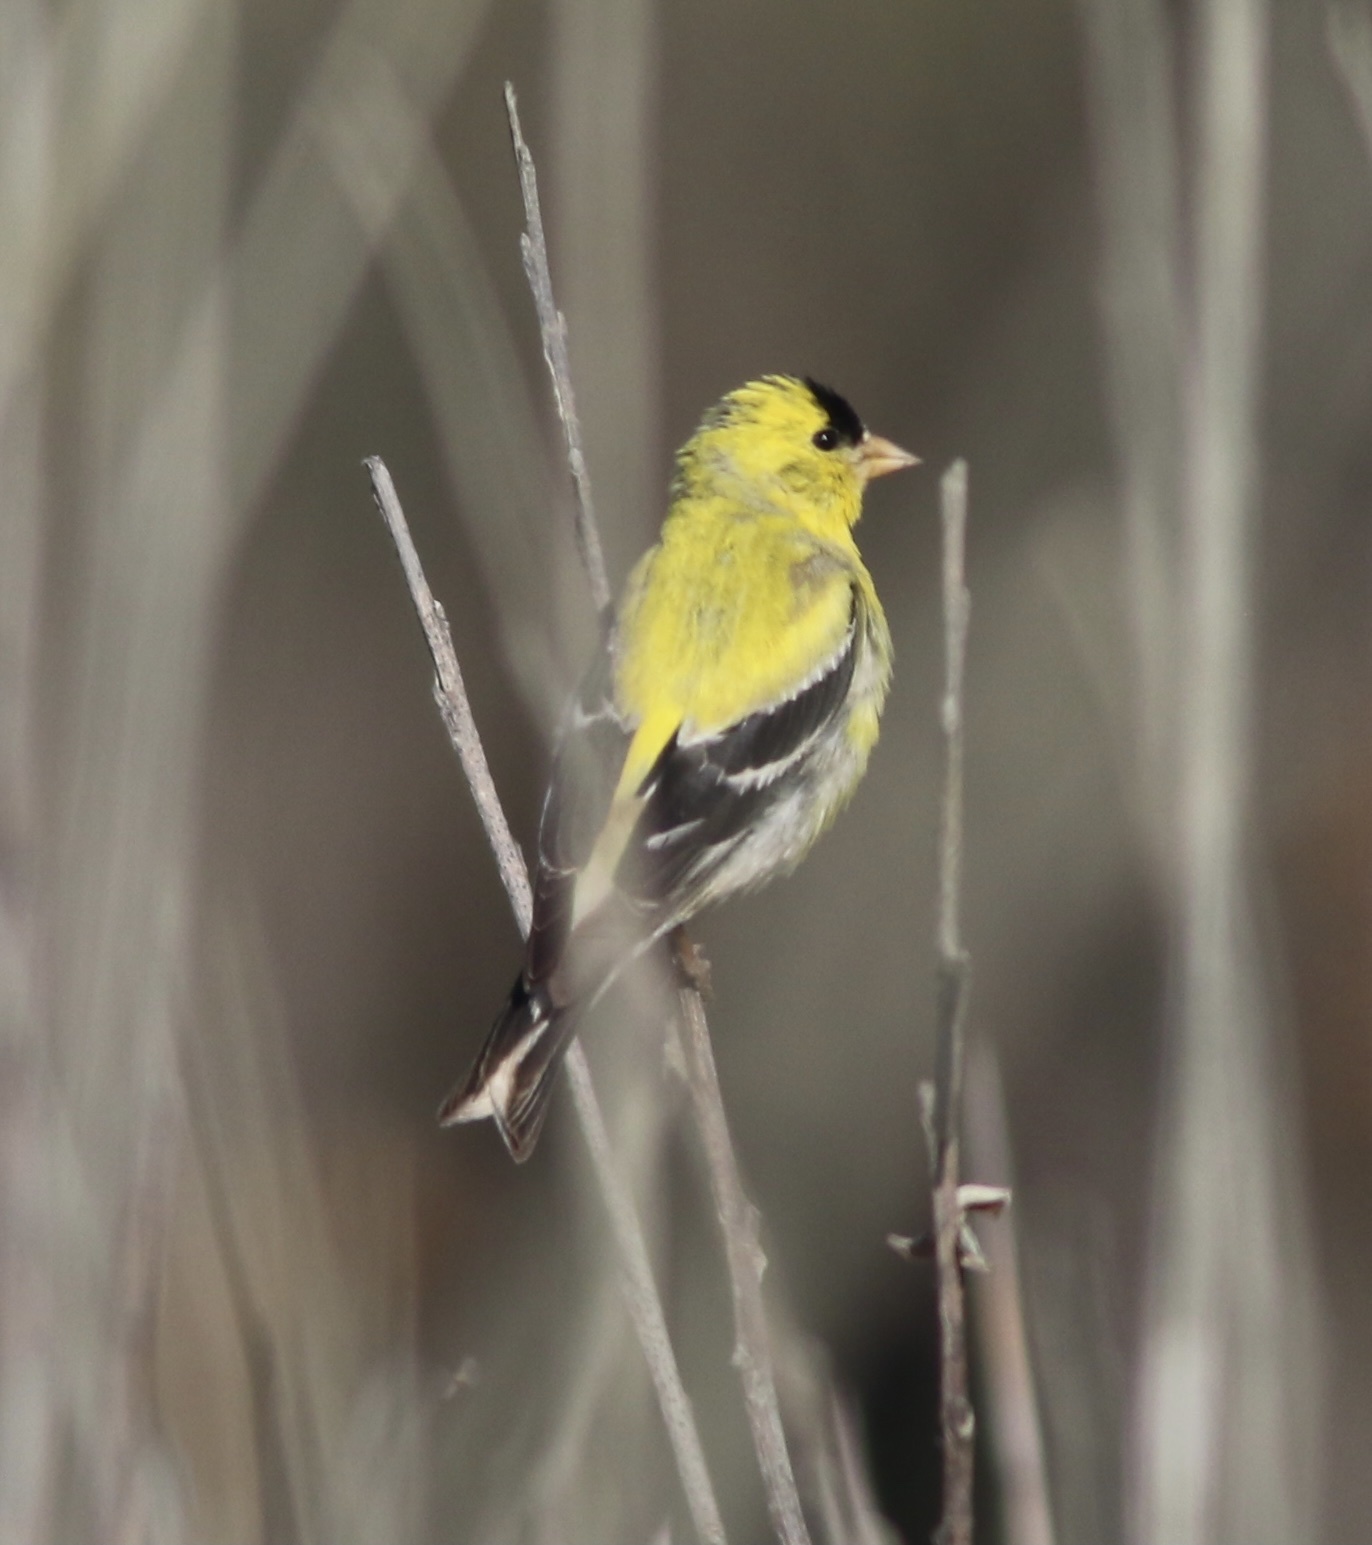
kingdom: Animalia
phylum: Chordata
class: Aves
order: Passeriformes
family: Fringillidae
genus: Spinus
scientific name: Spinus tristis
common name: American goldfinch
